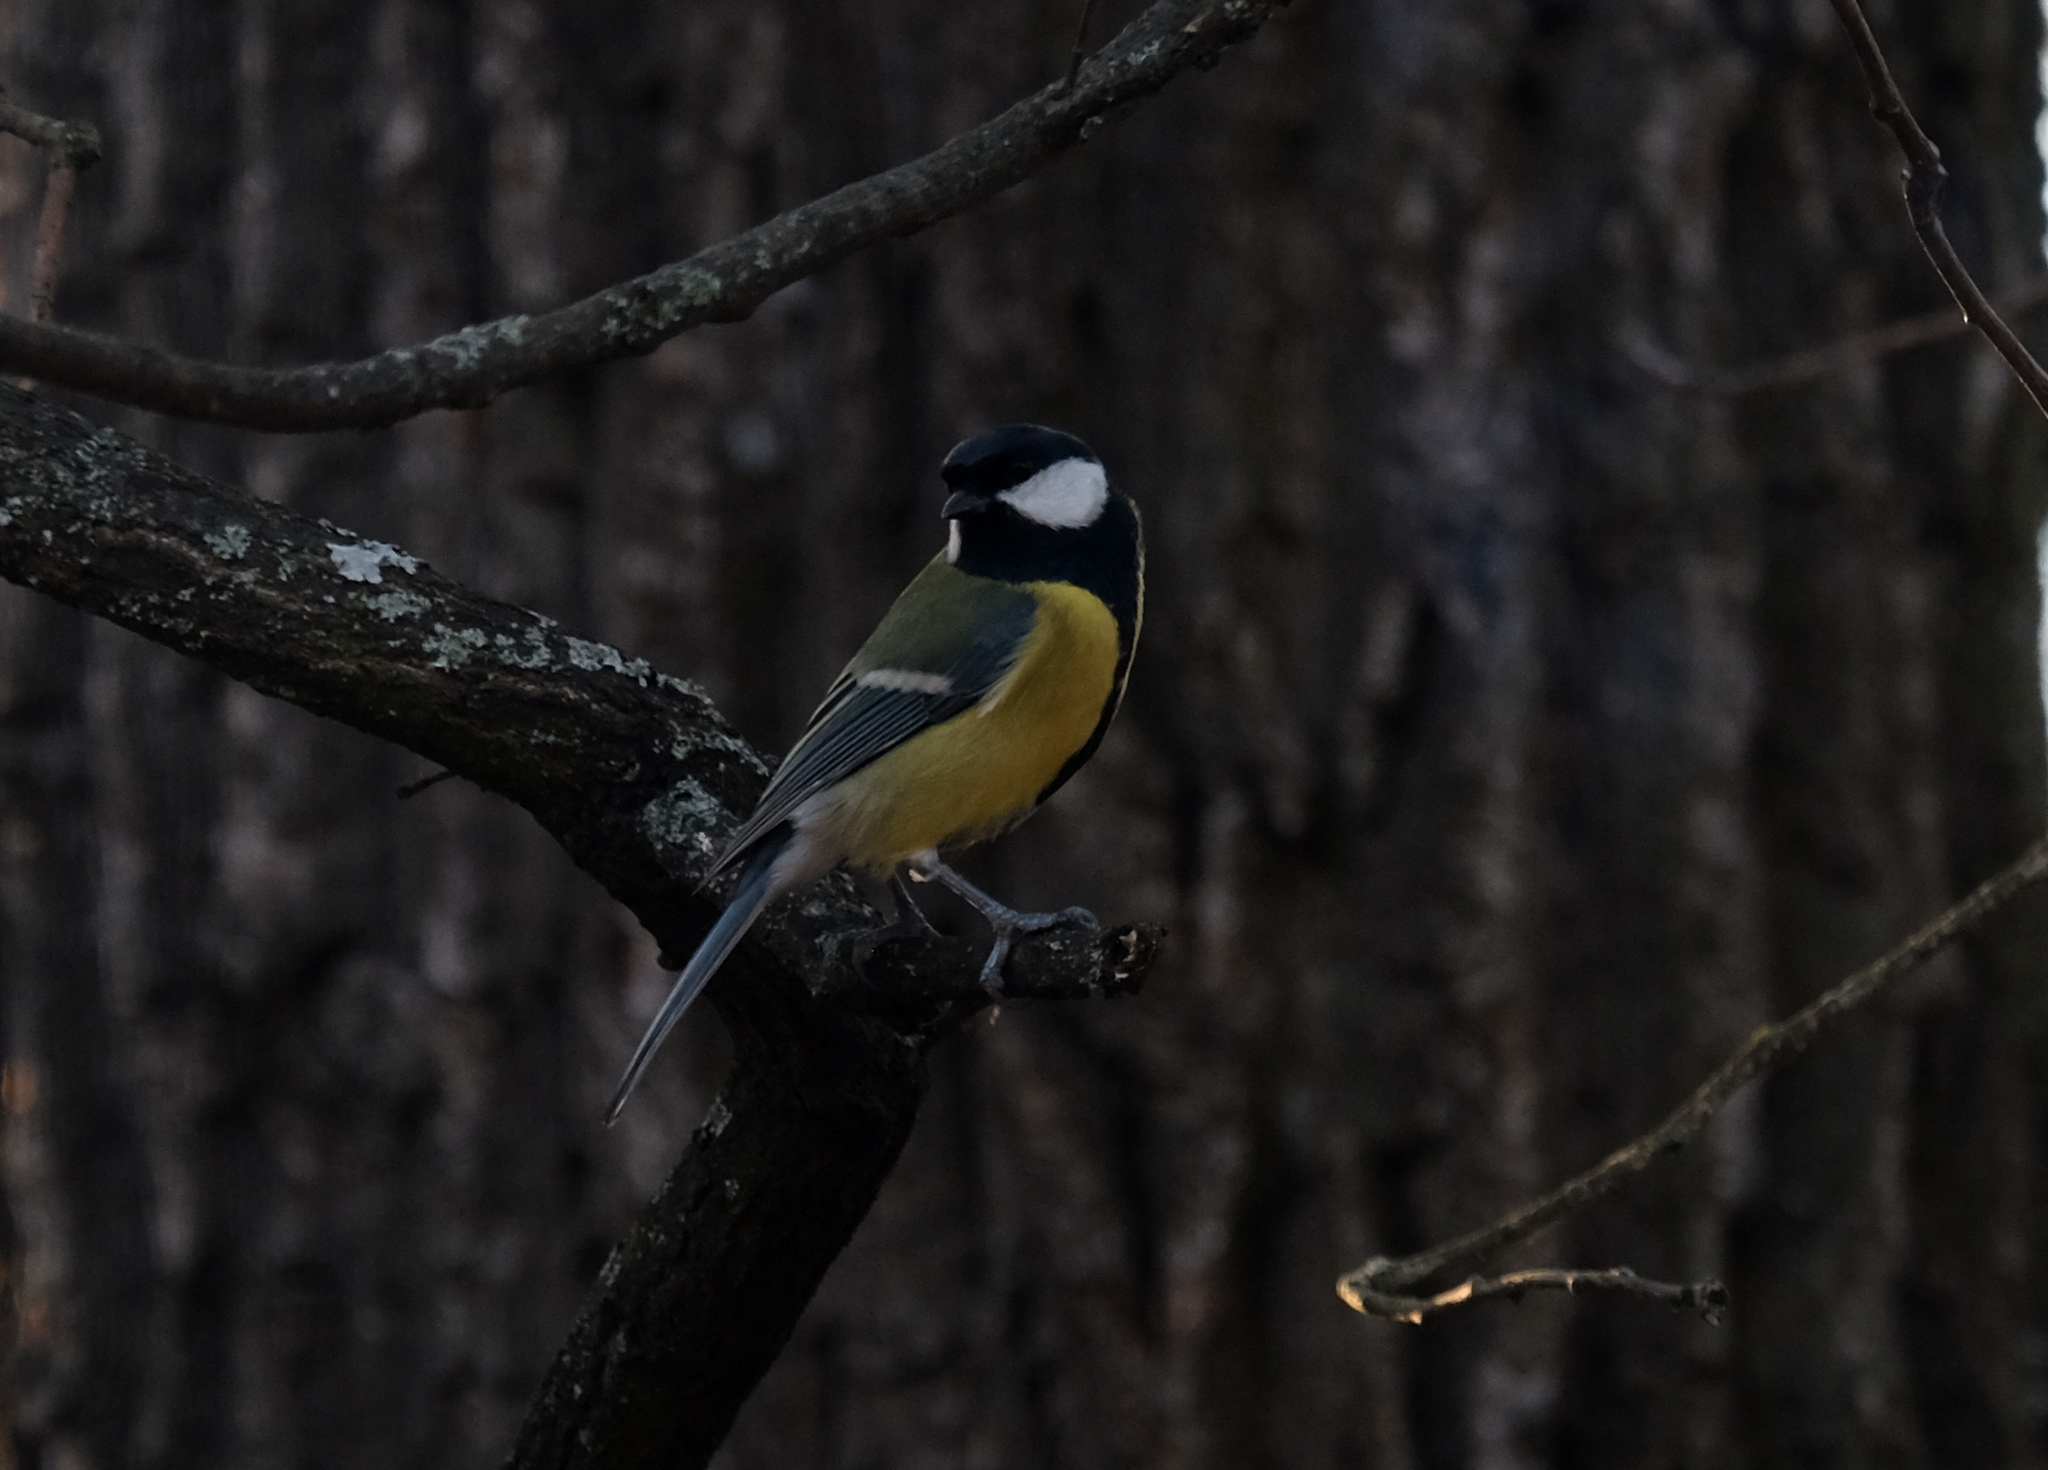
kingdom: Animalia
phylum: Chordata
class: Aves
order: Passeriformes
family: Paridae
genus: Parus
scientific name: Parus major
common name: Great tit
